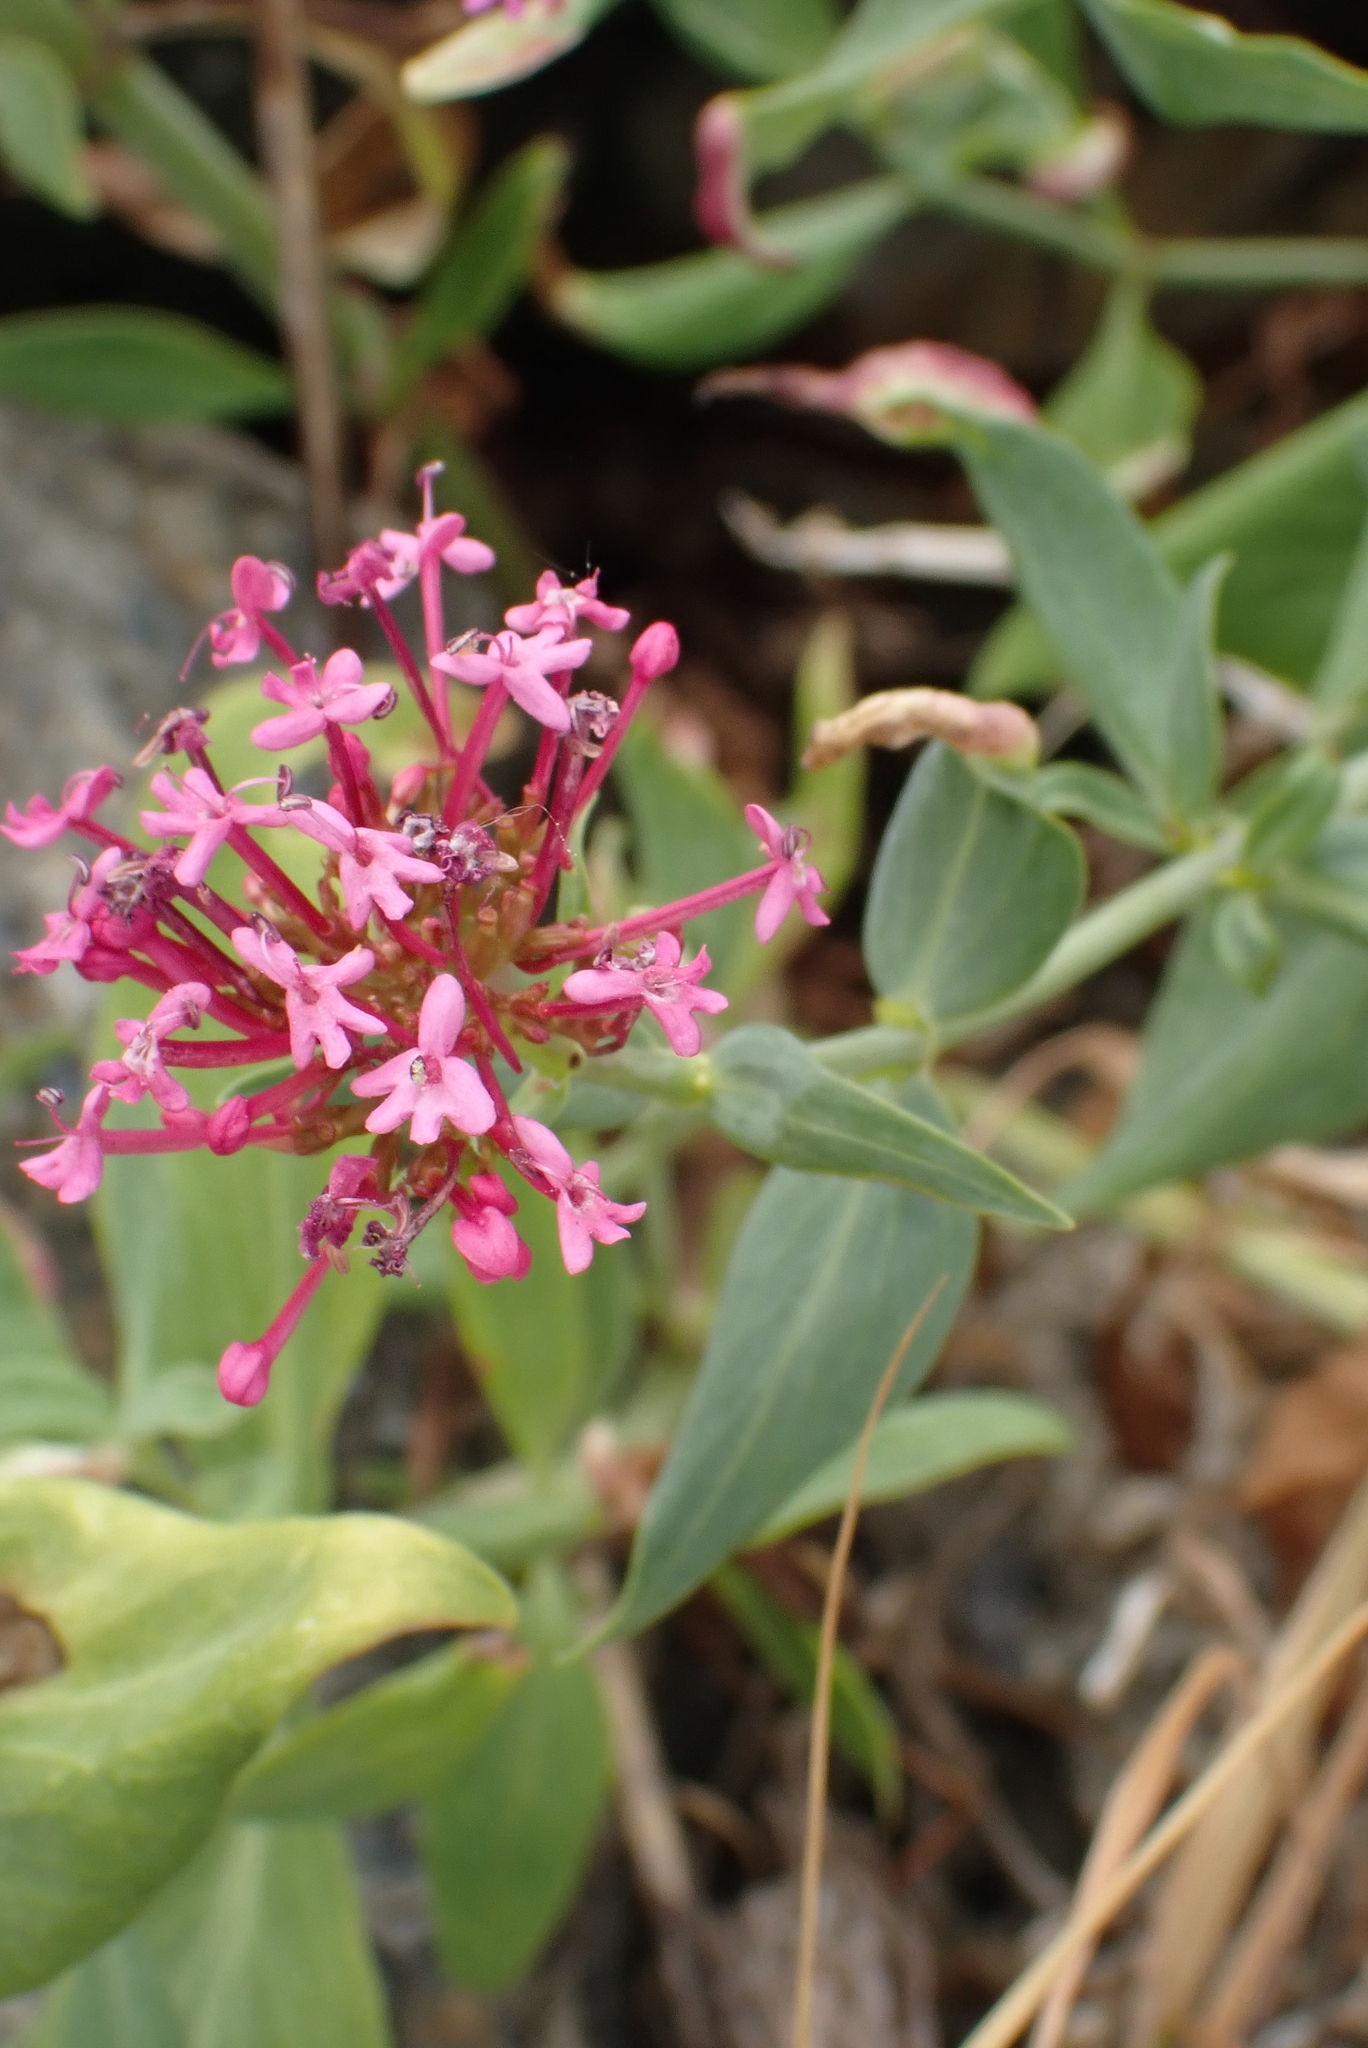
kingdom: Plantae
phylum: Tracheophyta
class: Magnoliopsida
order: Dipsacales
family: Caprifoliaceae
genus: Centranthus
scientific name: Centranthus ruber
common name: Red valerian
